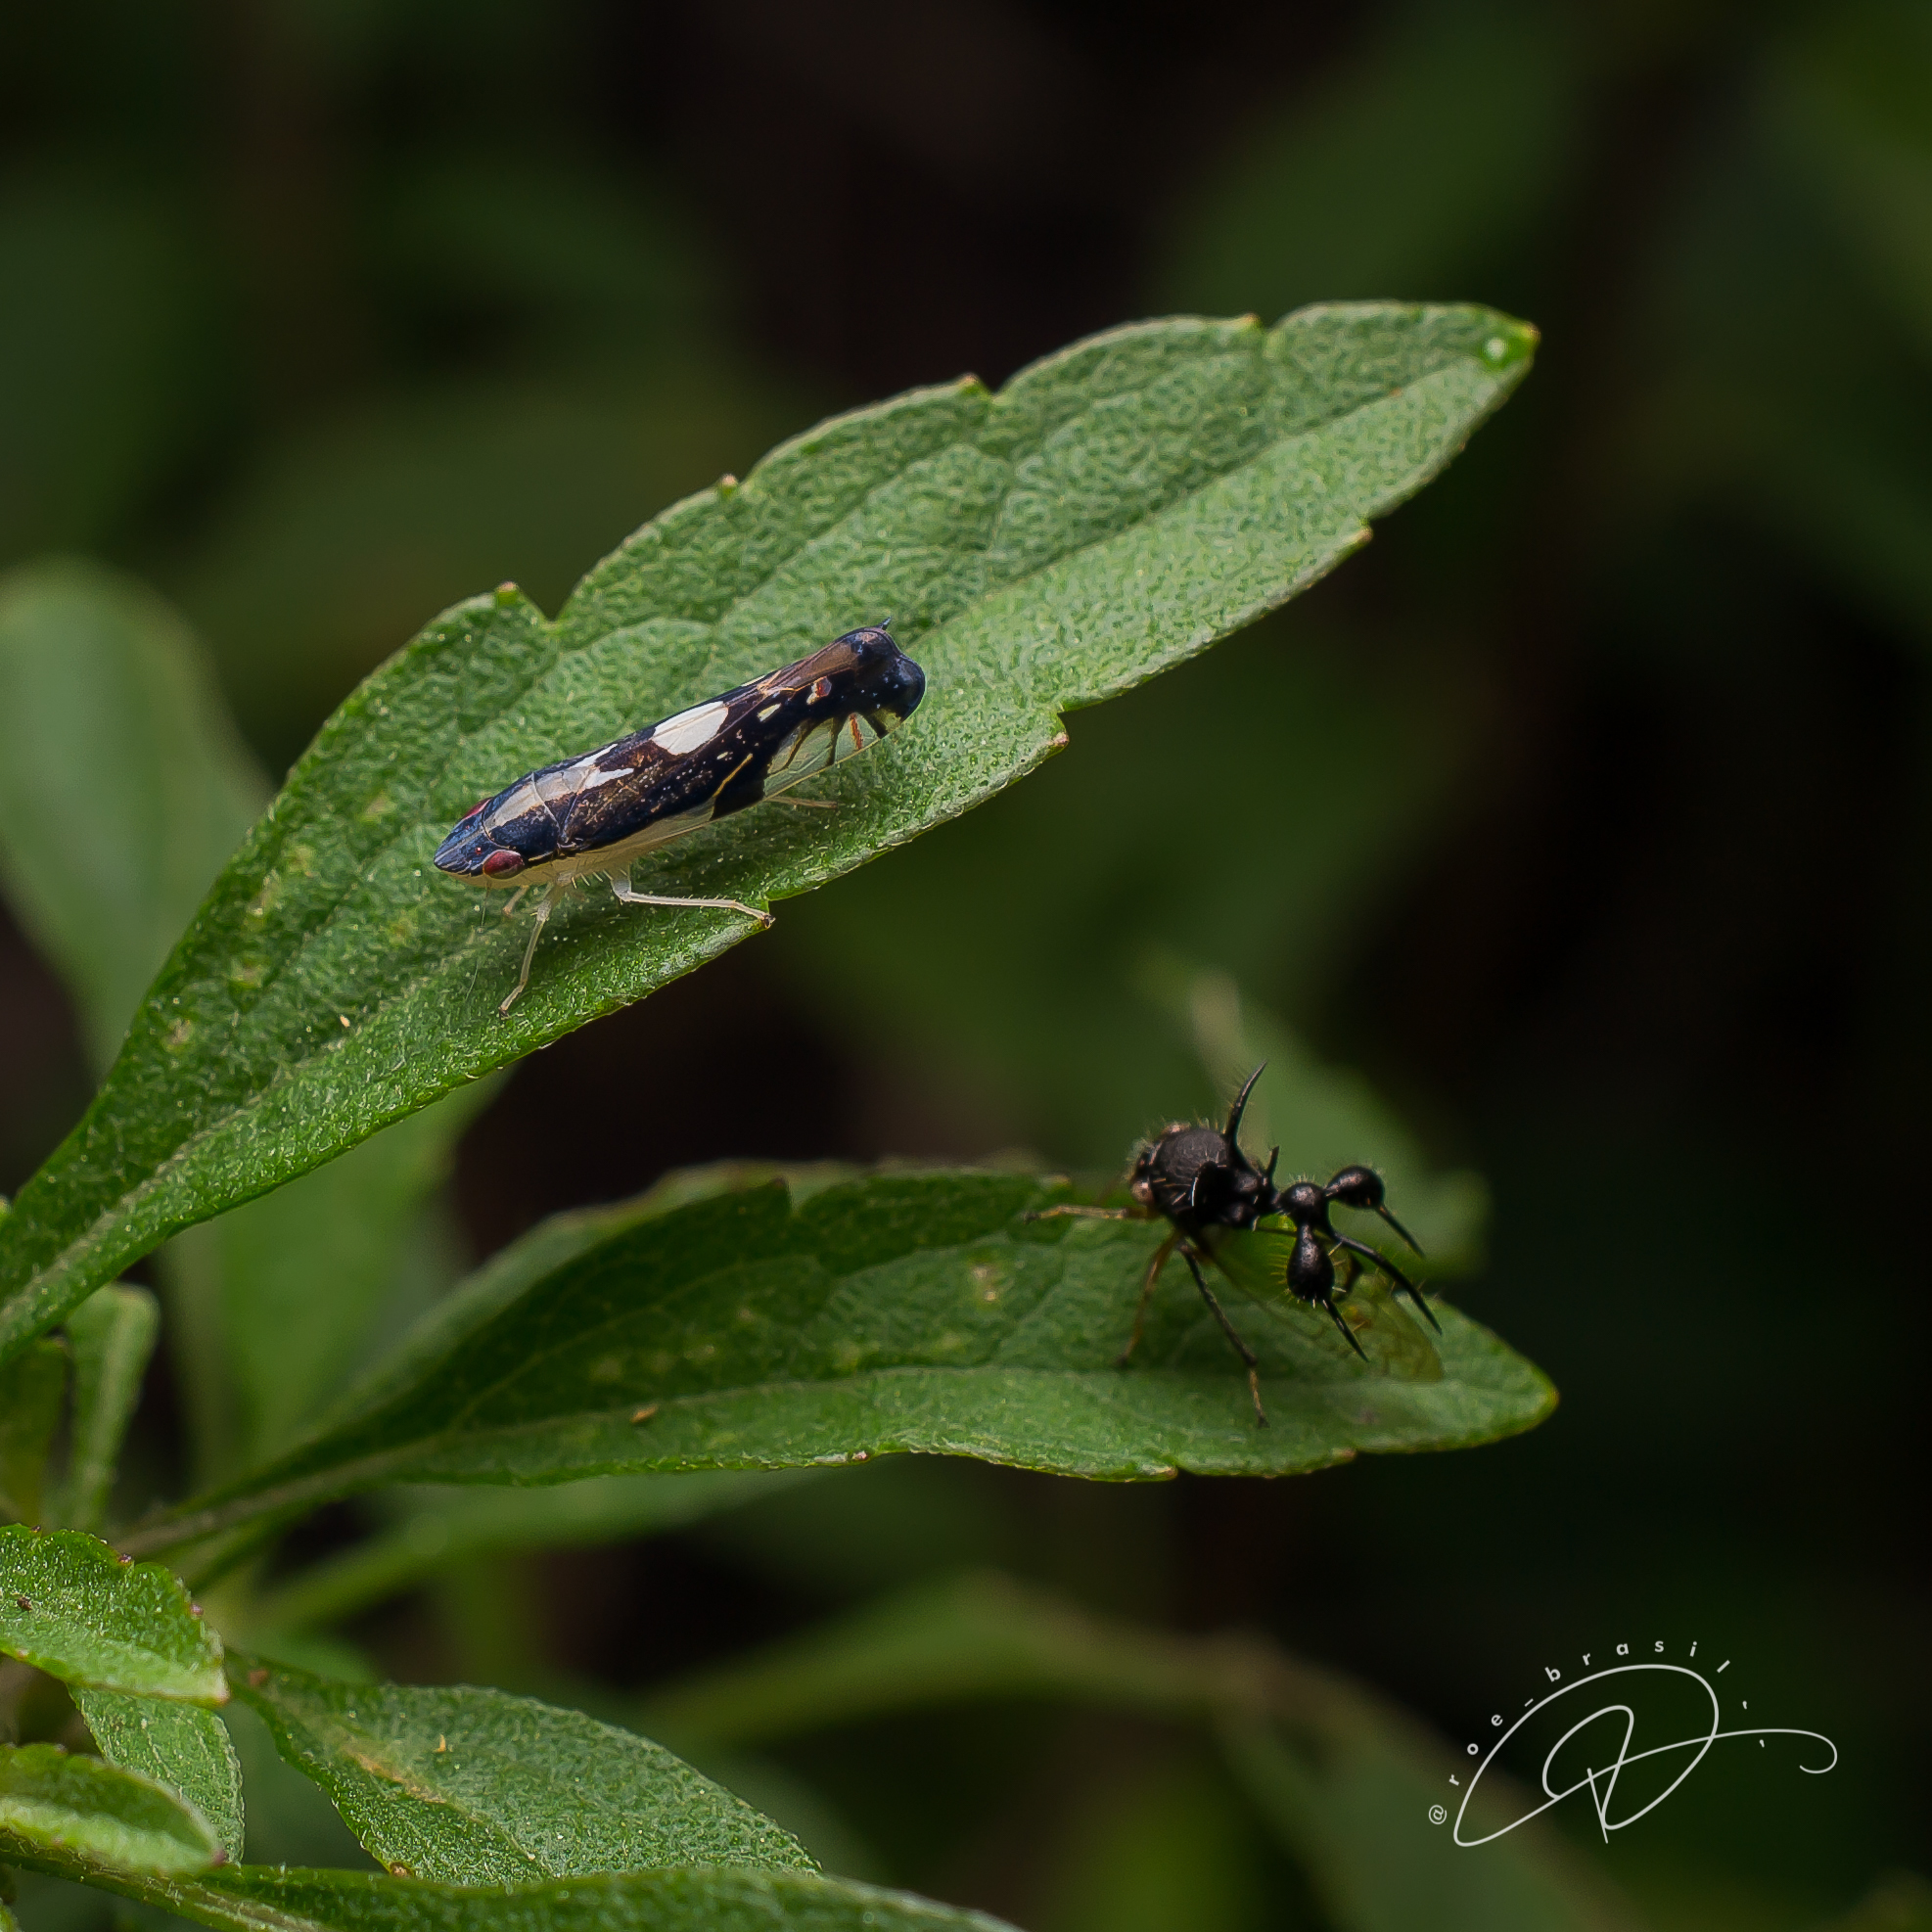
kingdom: Animalia
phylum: Arthropoda
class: Insecta
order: Hemiptera
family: Membracidae
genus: Cyphonia
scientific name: Cyphonia clavata
